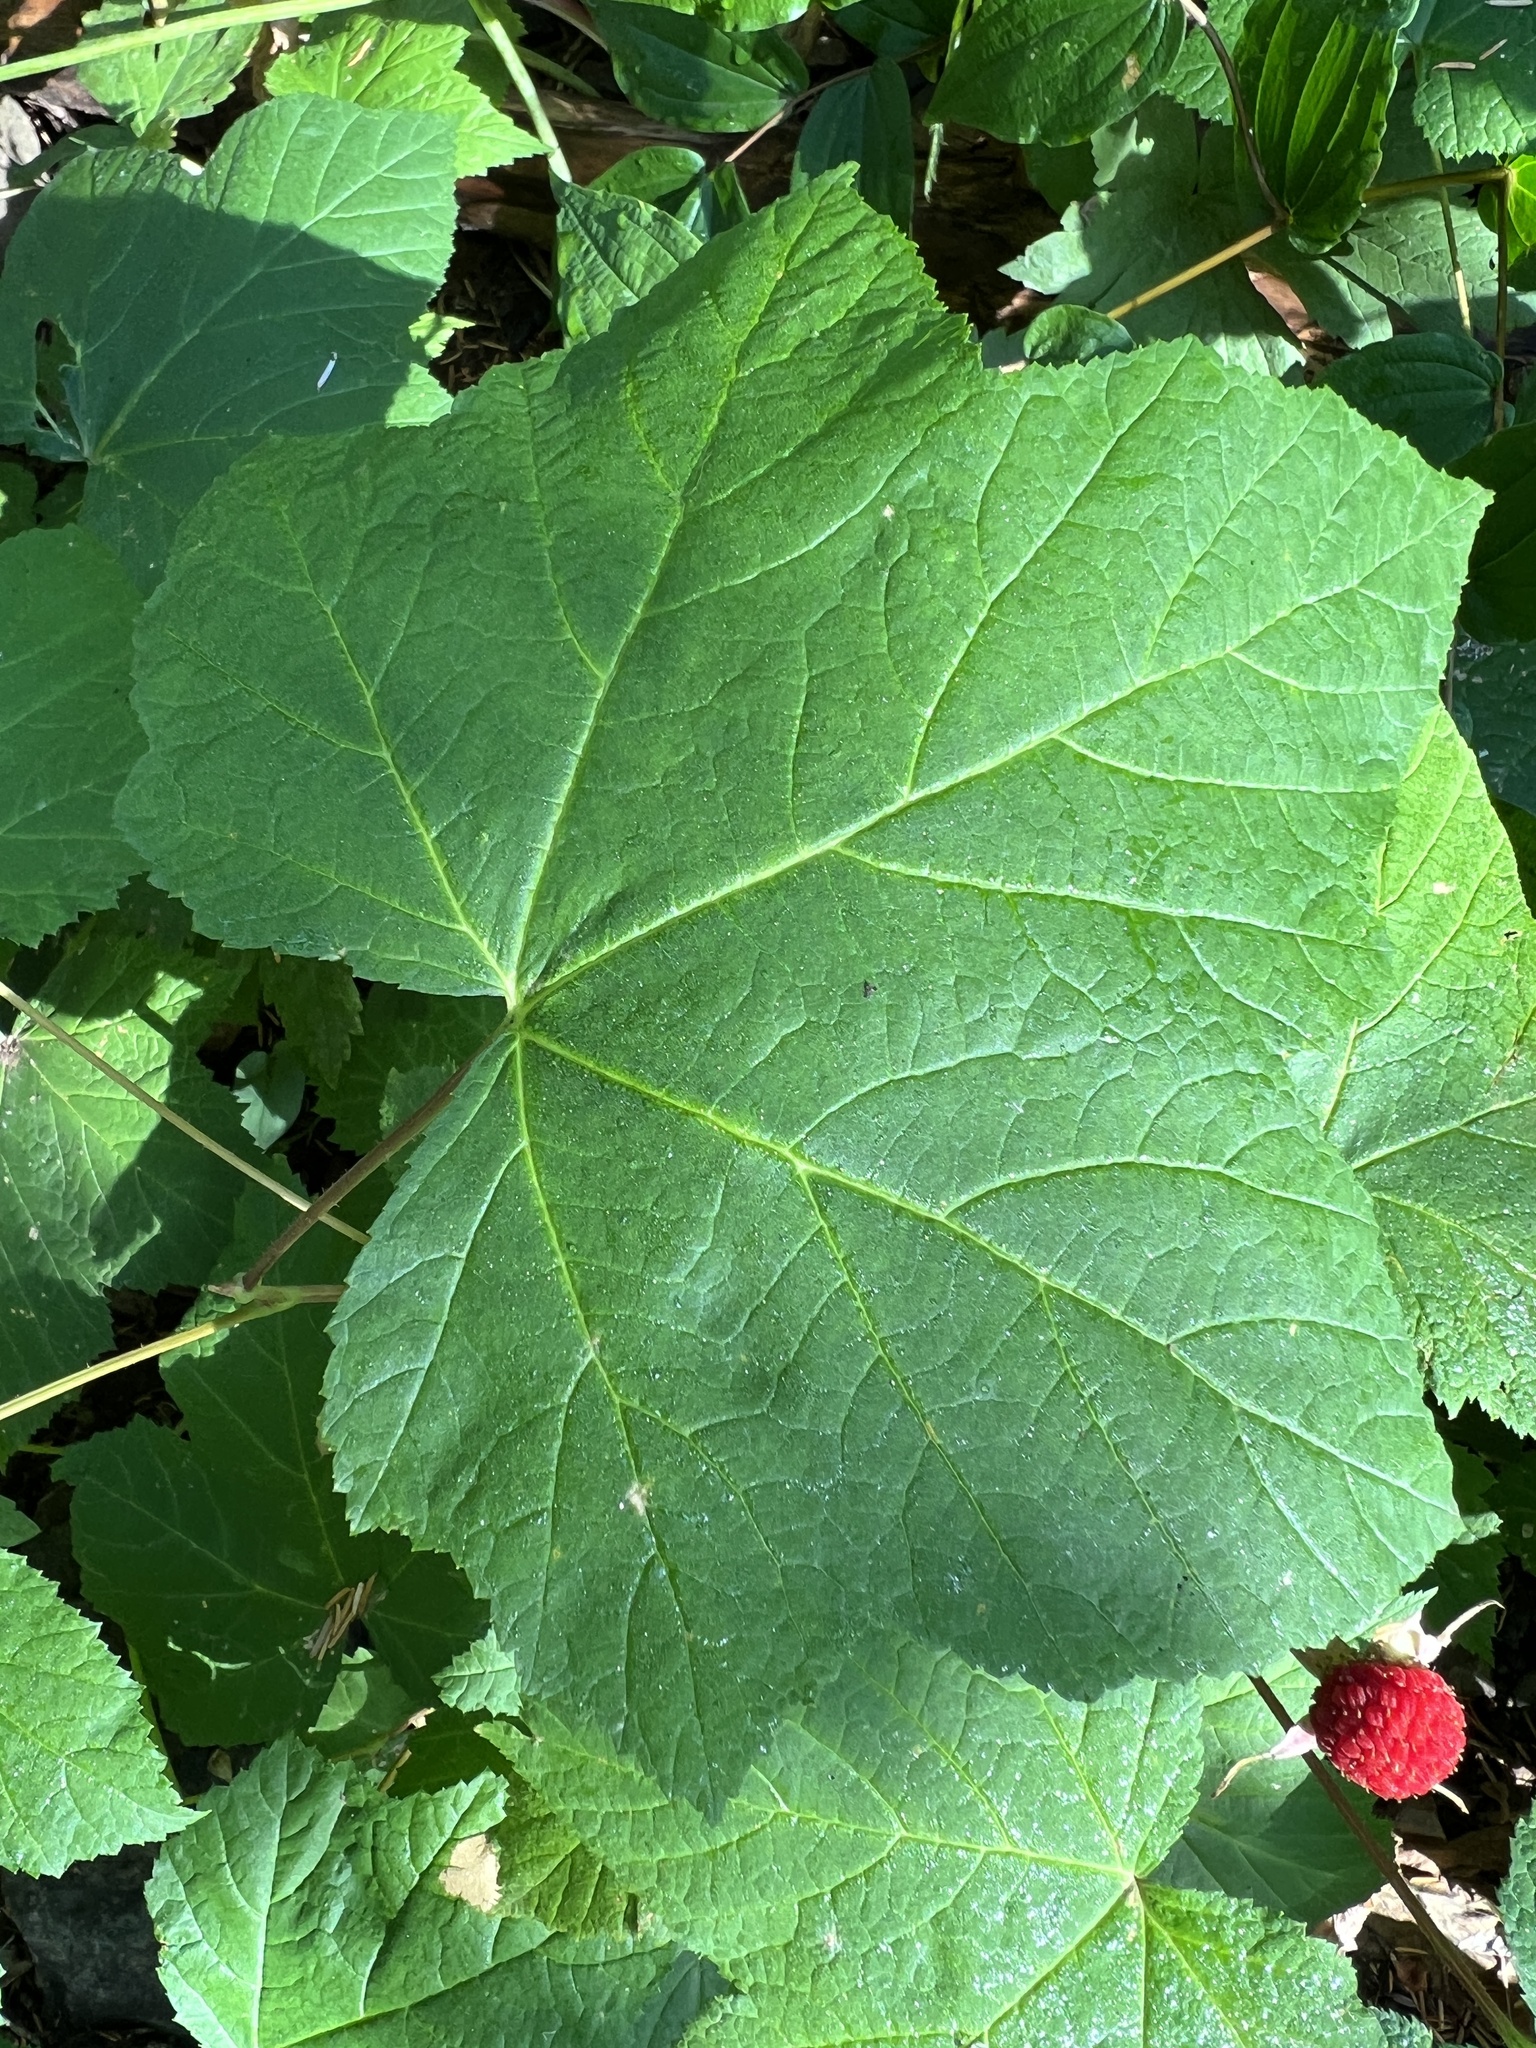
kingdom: Plantae
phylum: Tracheophyta
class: Magnoliopsida
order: Rosales
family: Rosaceae
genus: Rubus
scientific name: Rubus parviflorus
